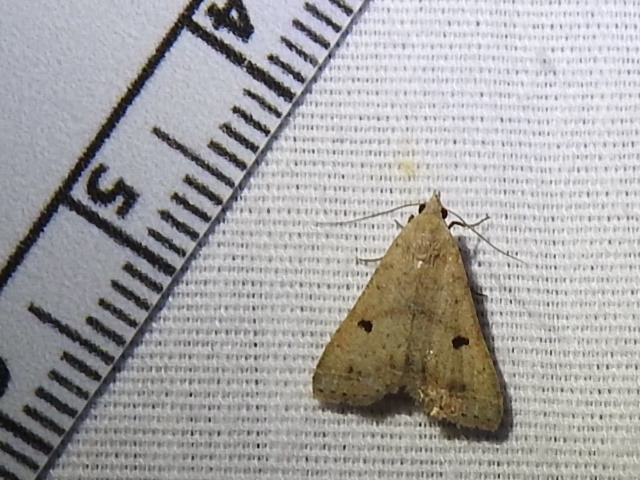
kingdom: Animalia
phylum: Arthropoda
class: Insecta
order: Lepidoptera
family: Erebidae
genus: Bleptina
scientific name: Bleptina caradrinalis
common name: Bent-winged owlet
